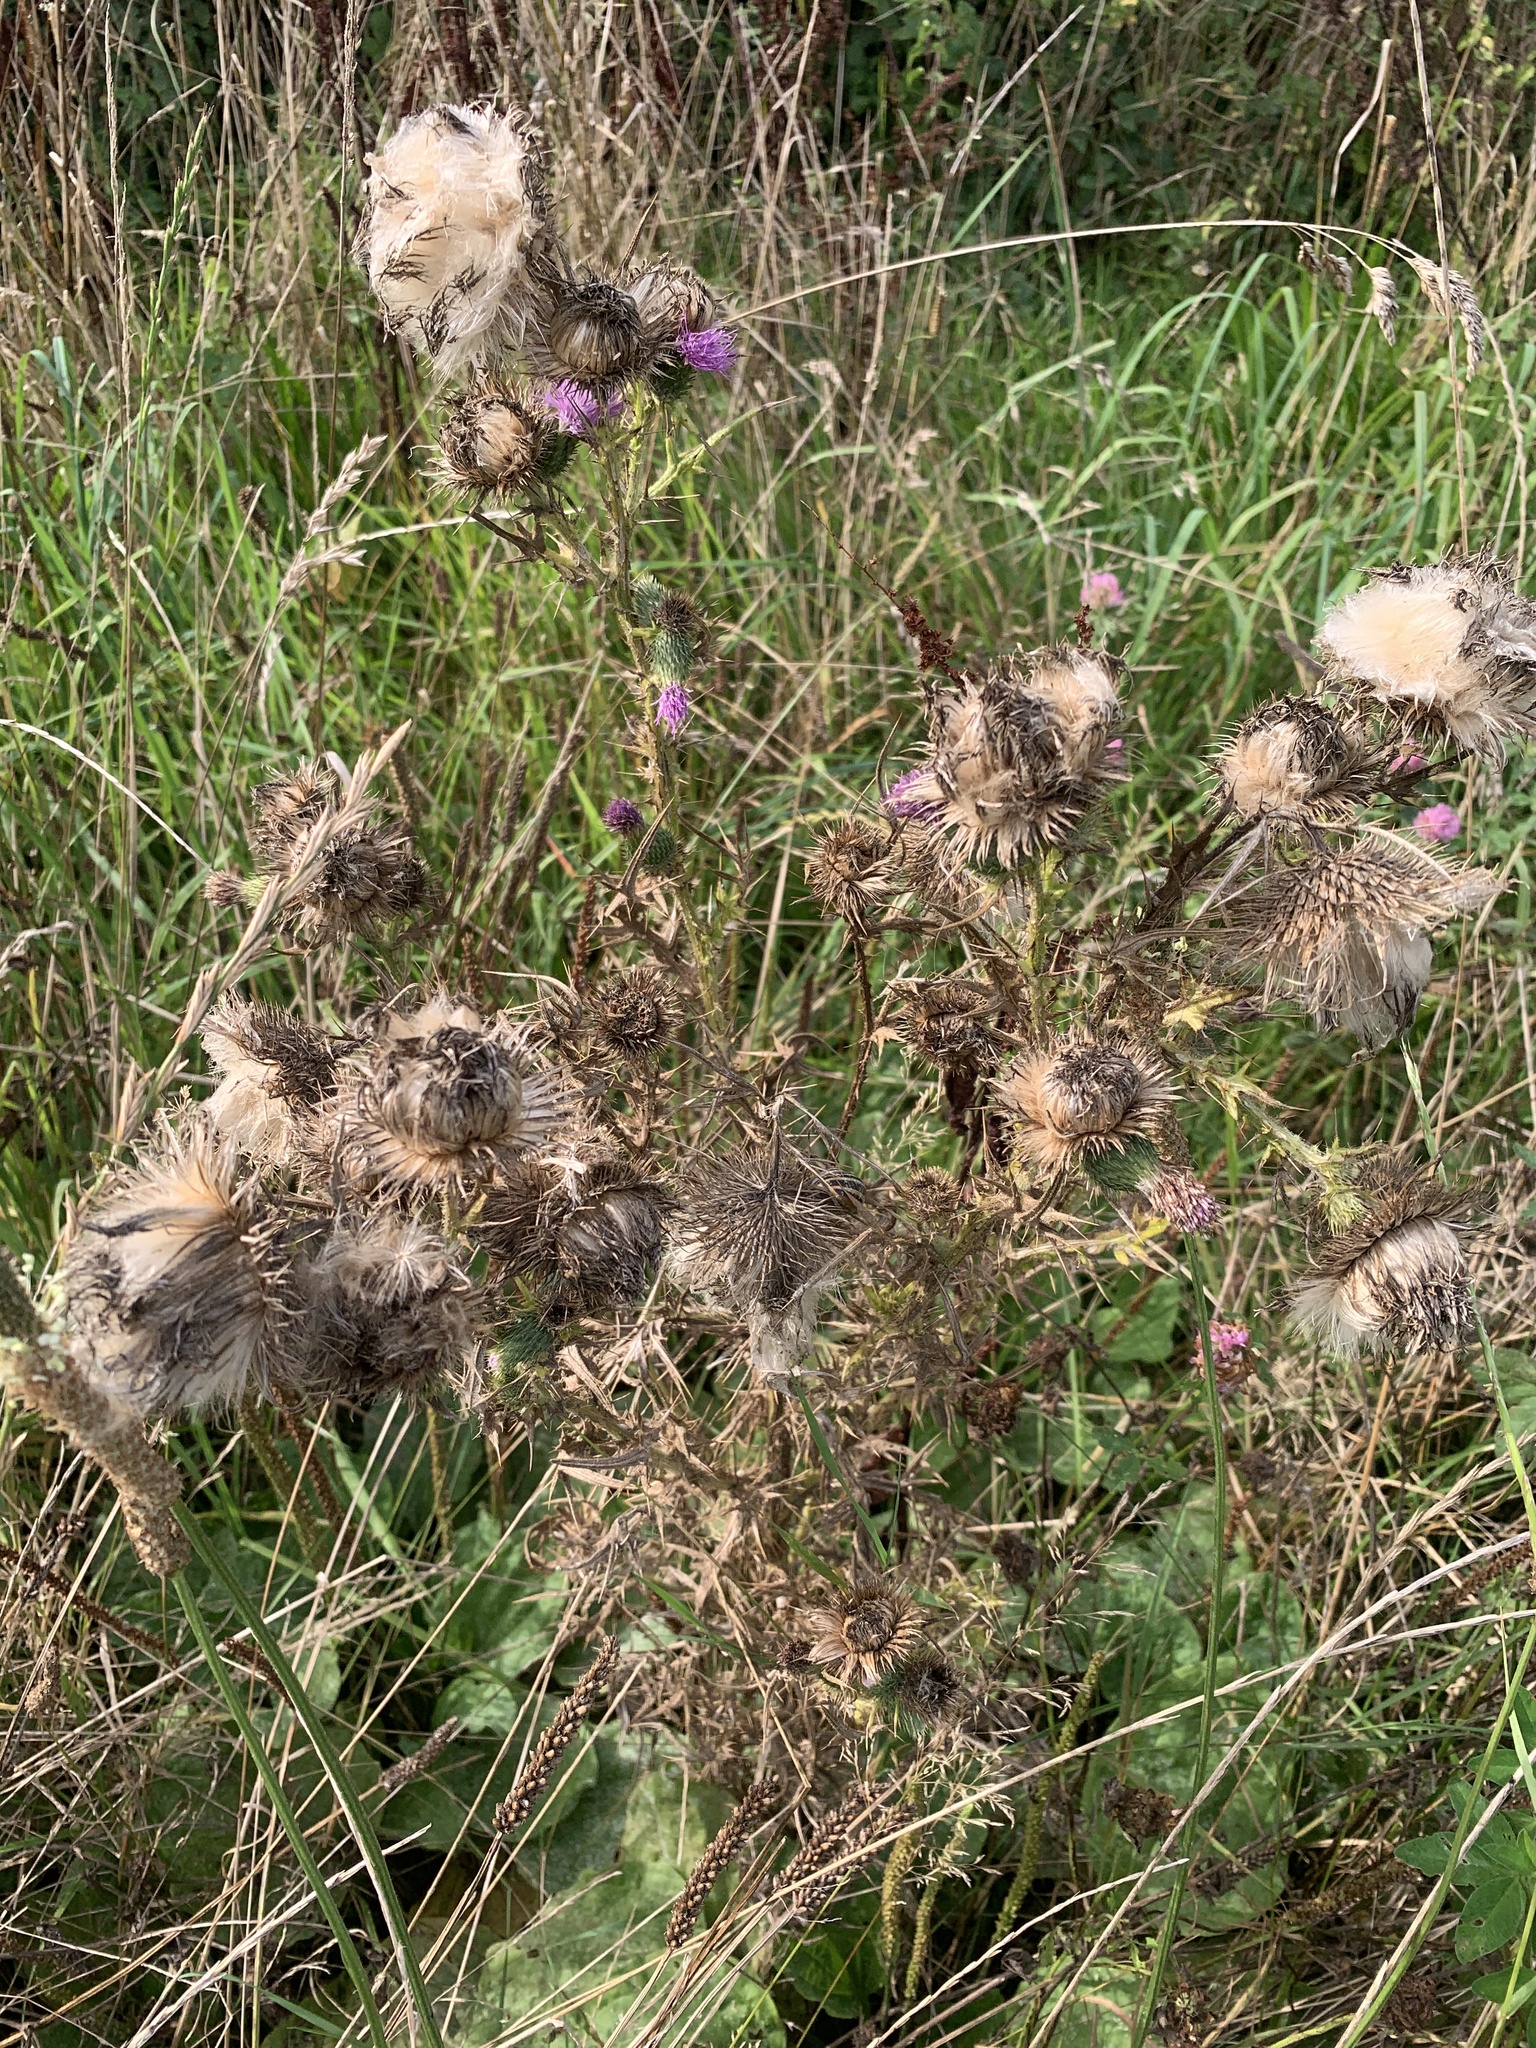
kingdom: Plantae
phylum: Tracheophyta
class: Magnoliopsida
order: Asterales
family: Asteraceae
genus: Cirsium
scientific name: Cirsium arvense
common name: Creeping thistle
